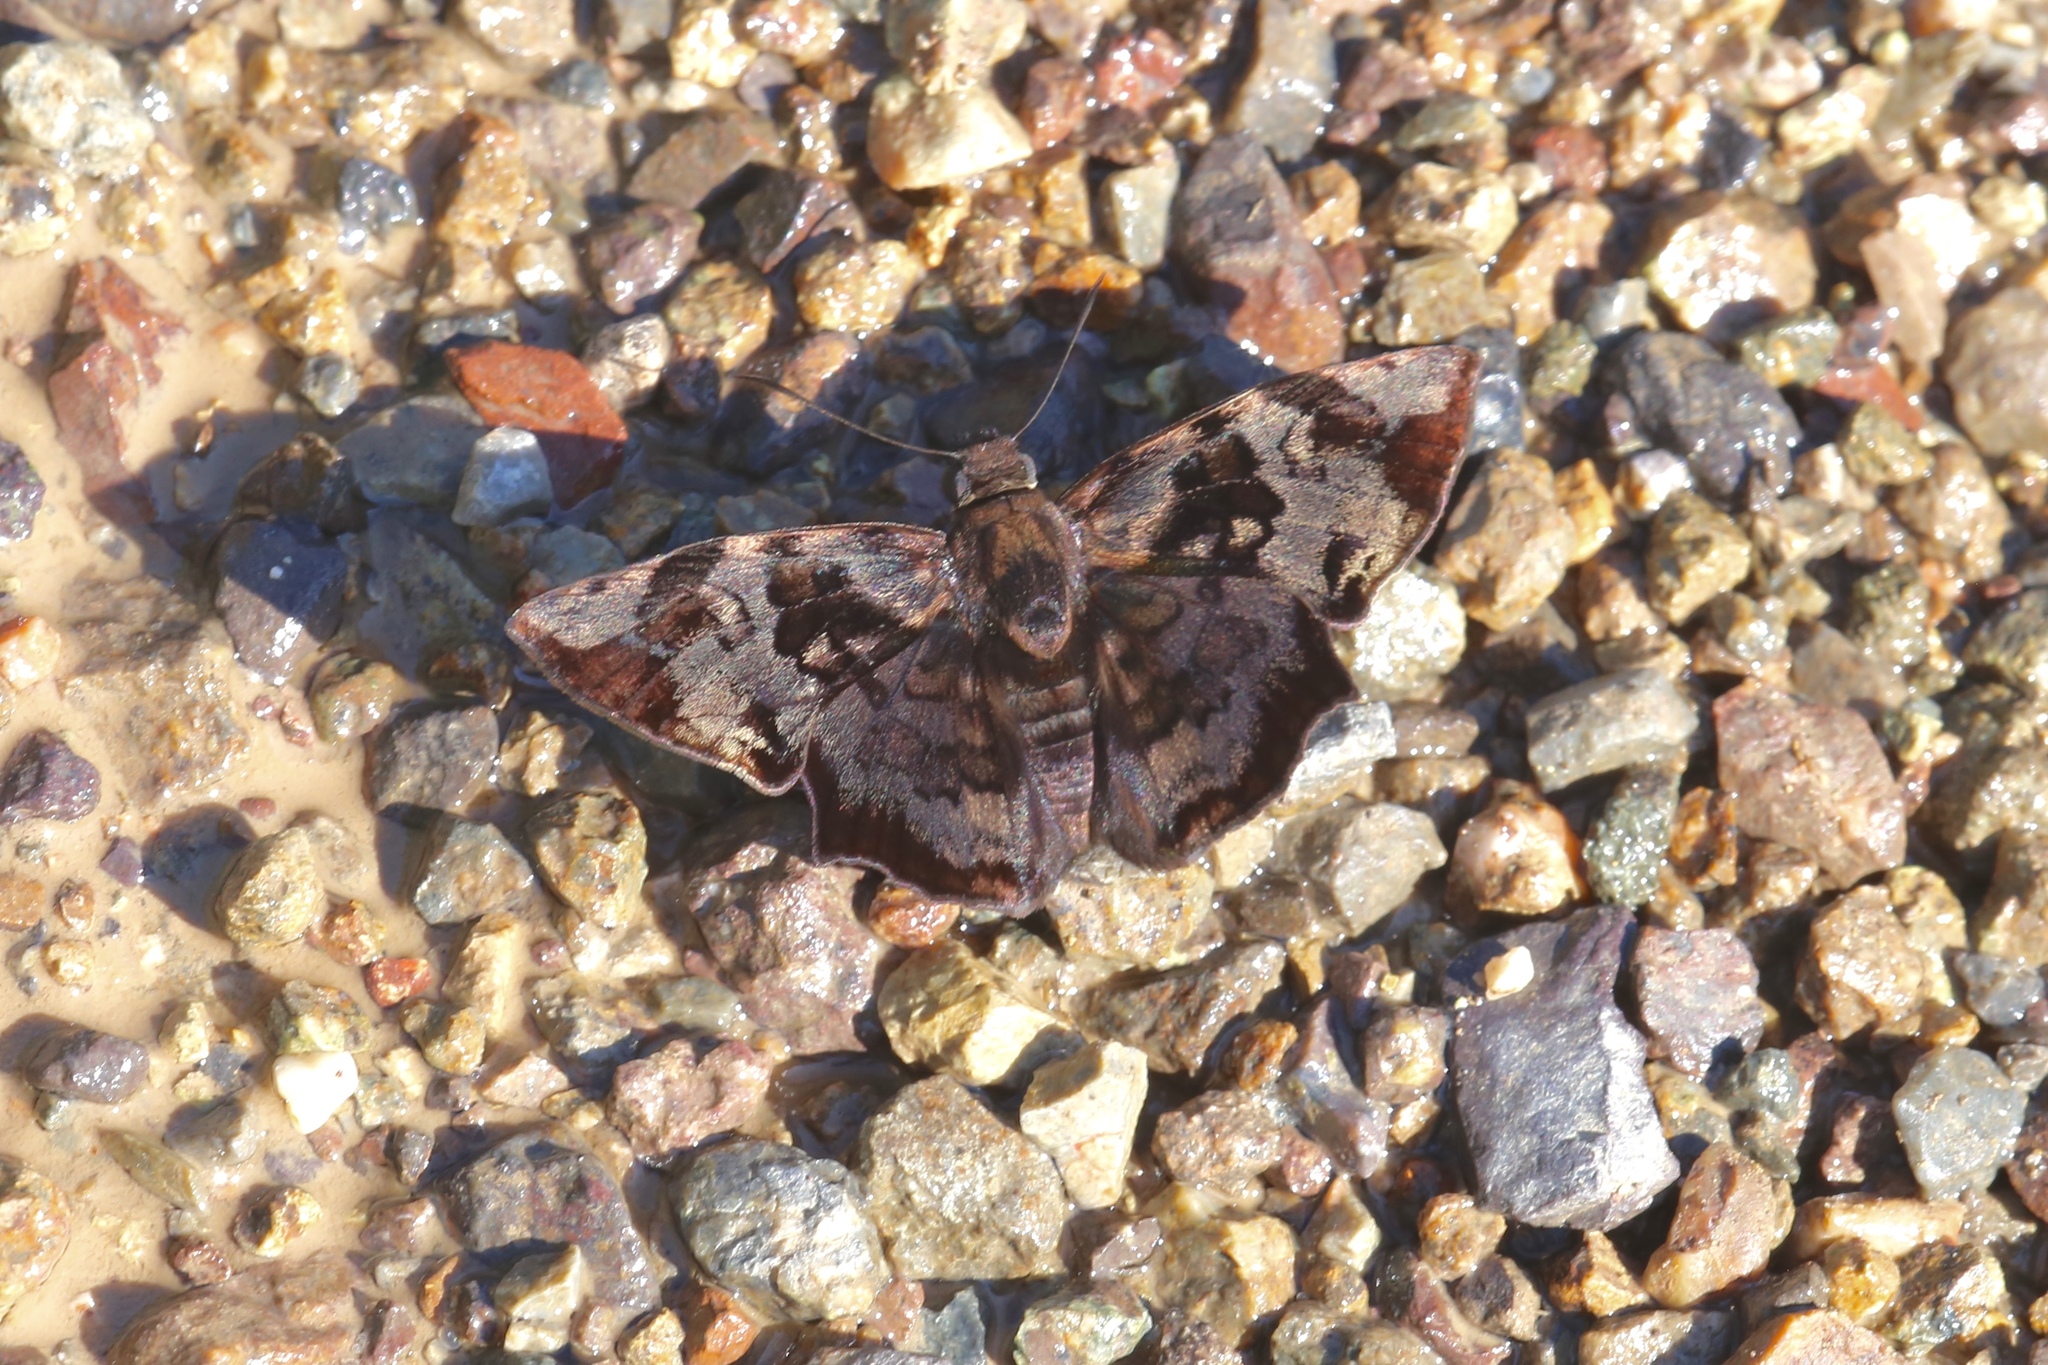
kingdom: Animalia
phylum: Arthropoda
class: Insecta
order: Lepidoptera
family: Hesperiidae
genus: Antigonus
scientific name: Antigonus nearchus
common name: Death-mask spurwing
